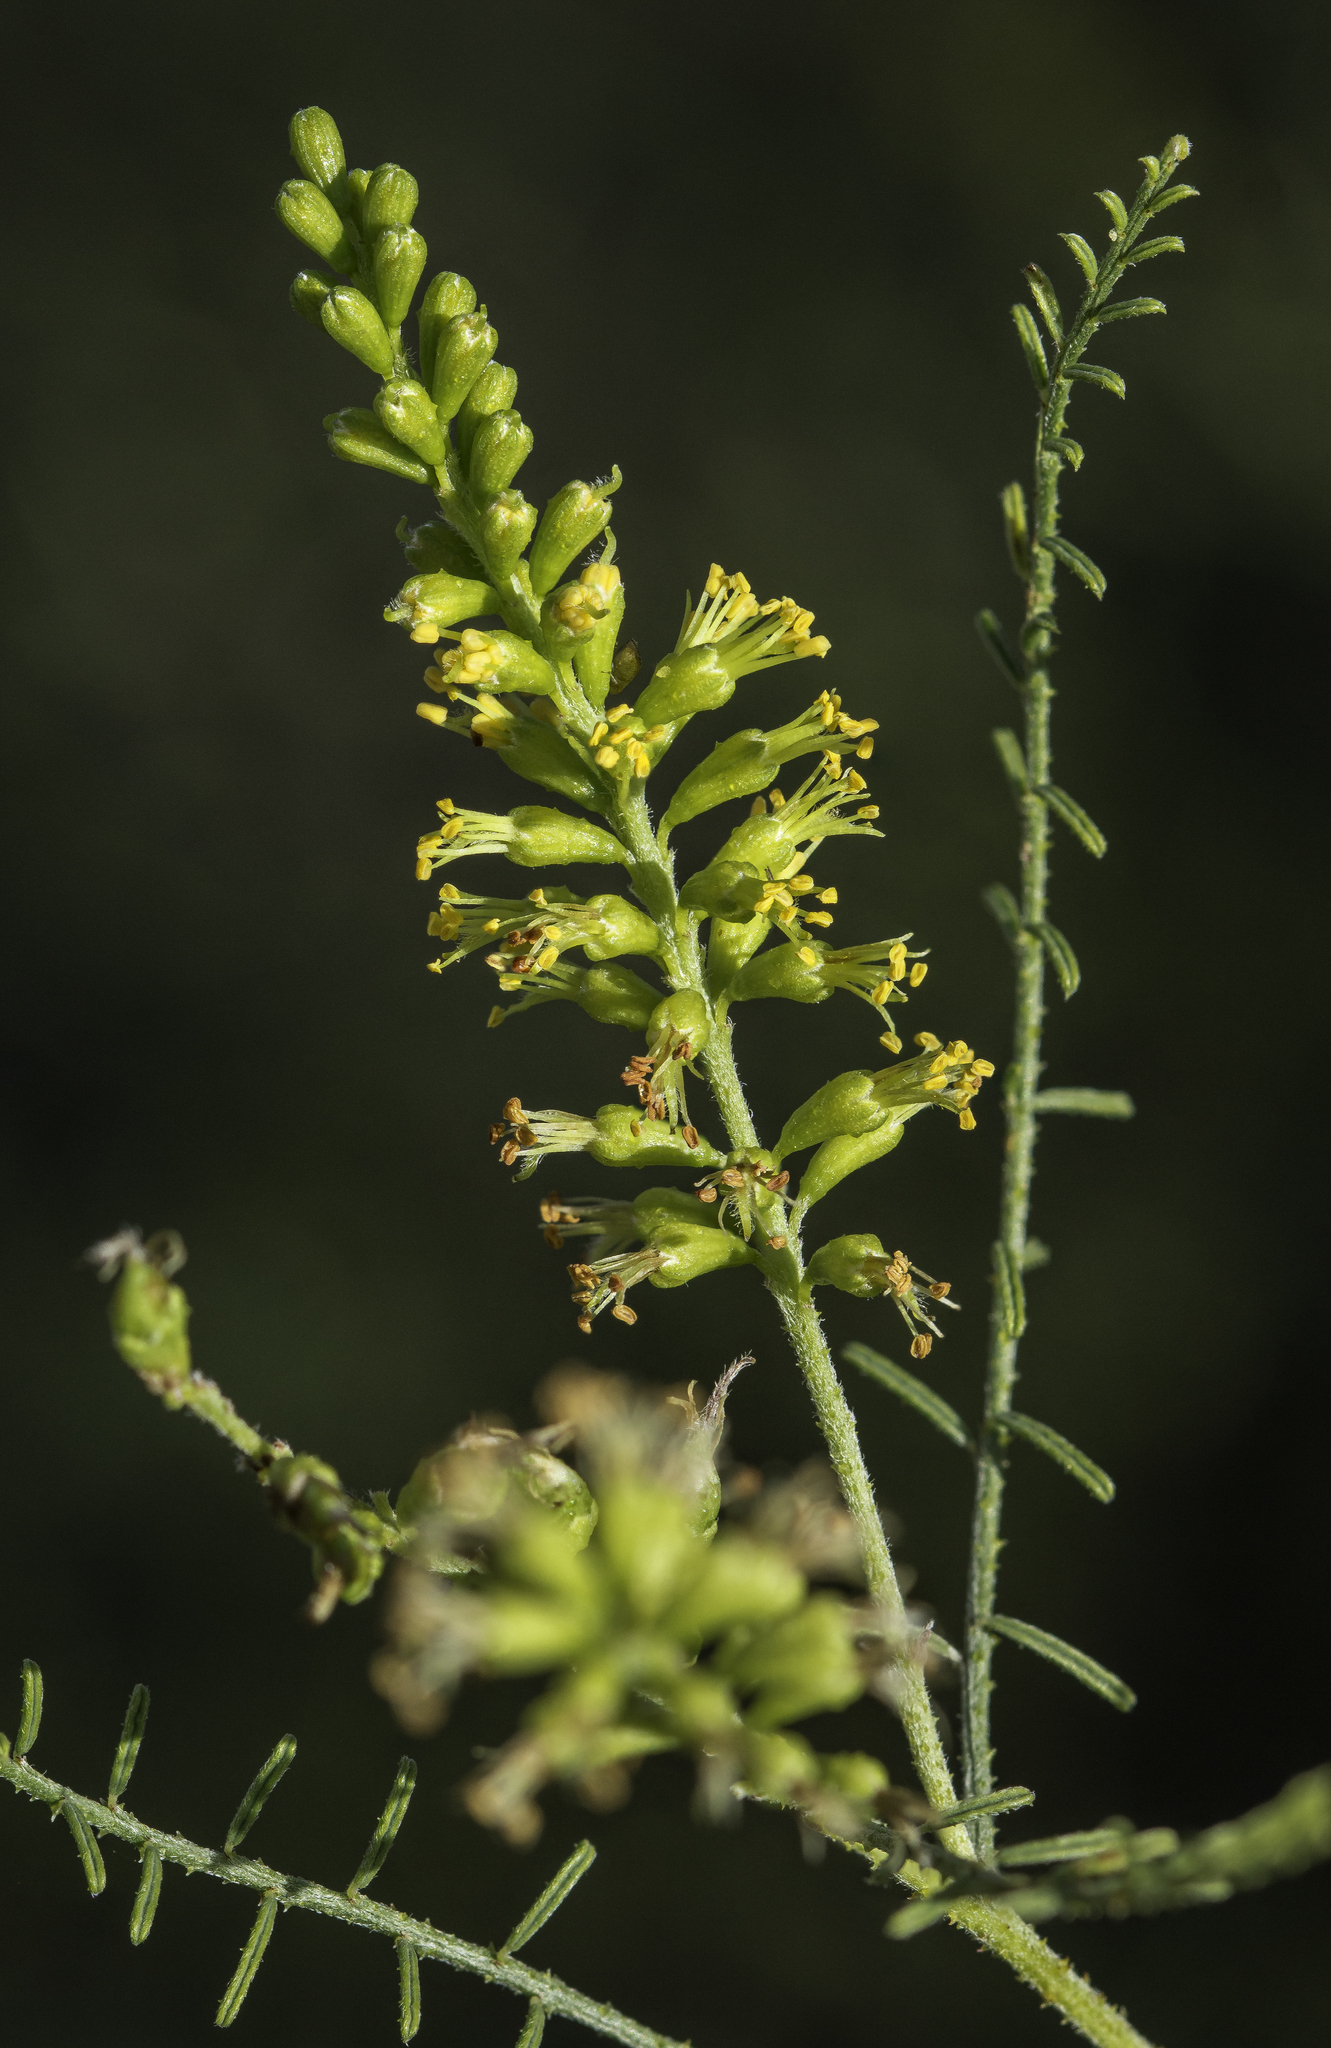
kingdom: Plantae
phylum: Tracheophyta
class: Magnoliopsida
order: Fabales
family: Fabaceae
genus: Parryella
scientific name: Parryella filifolia
